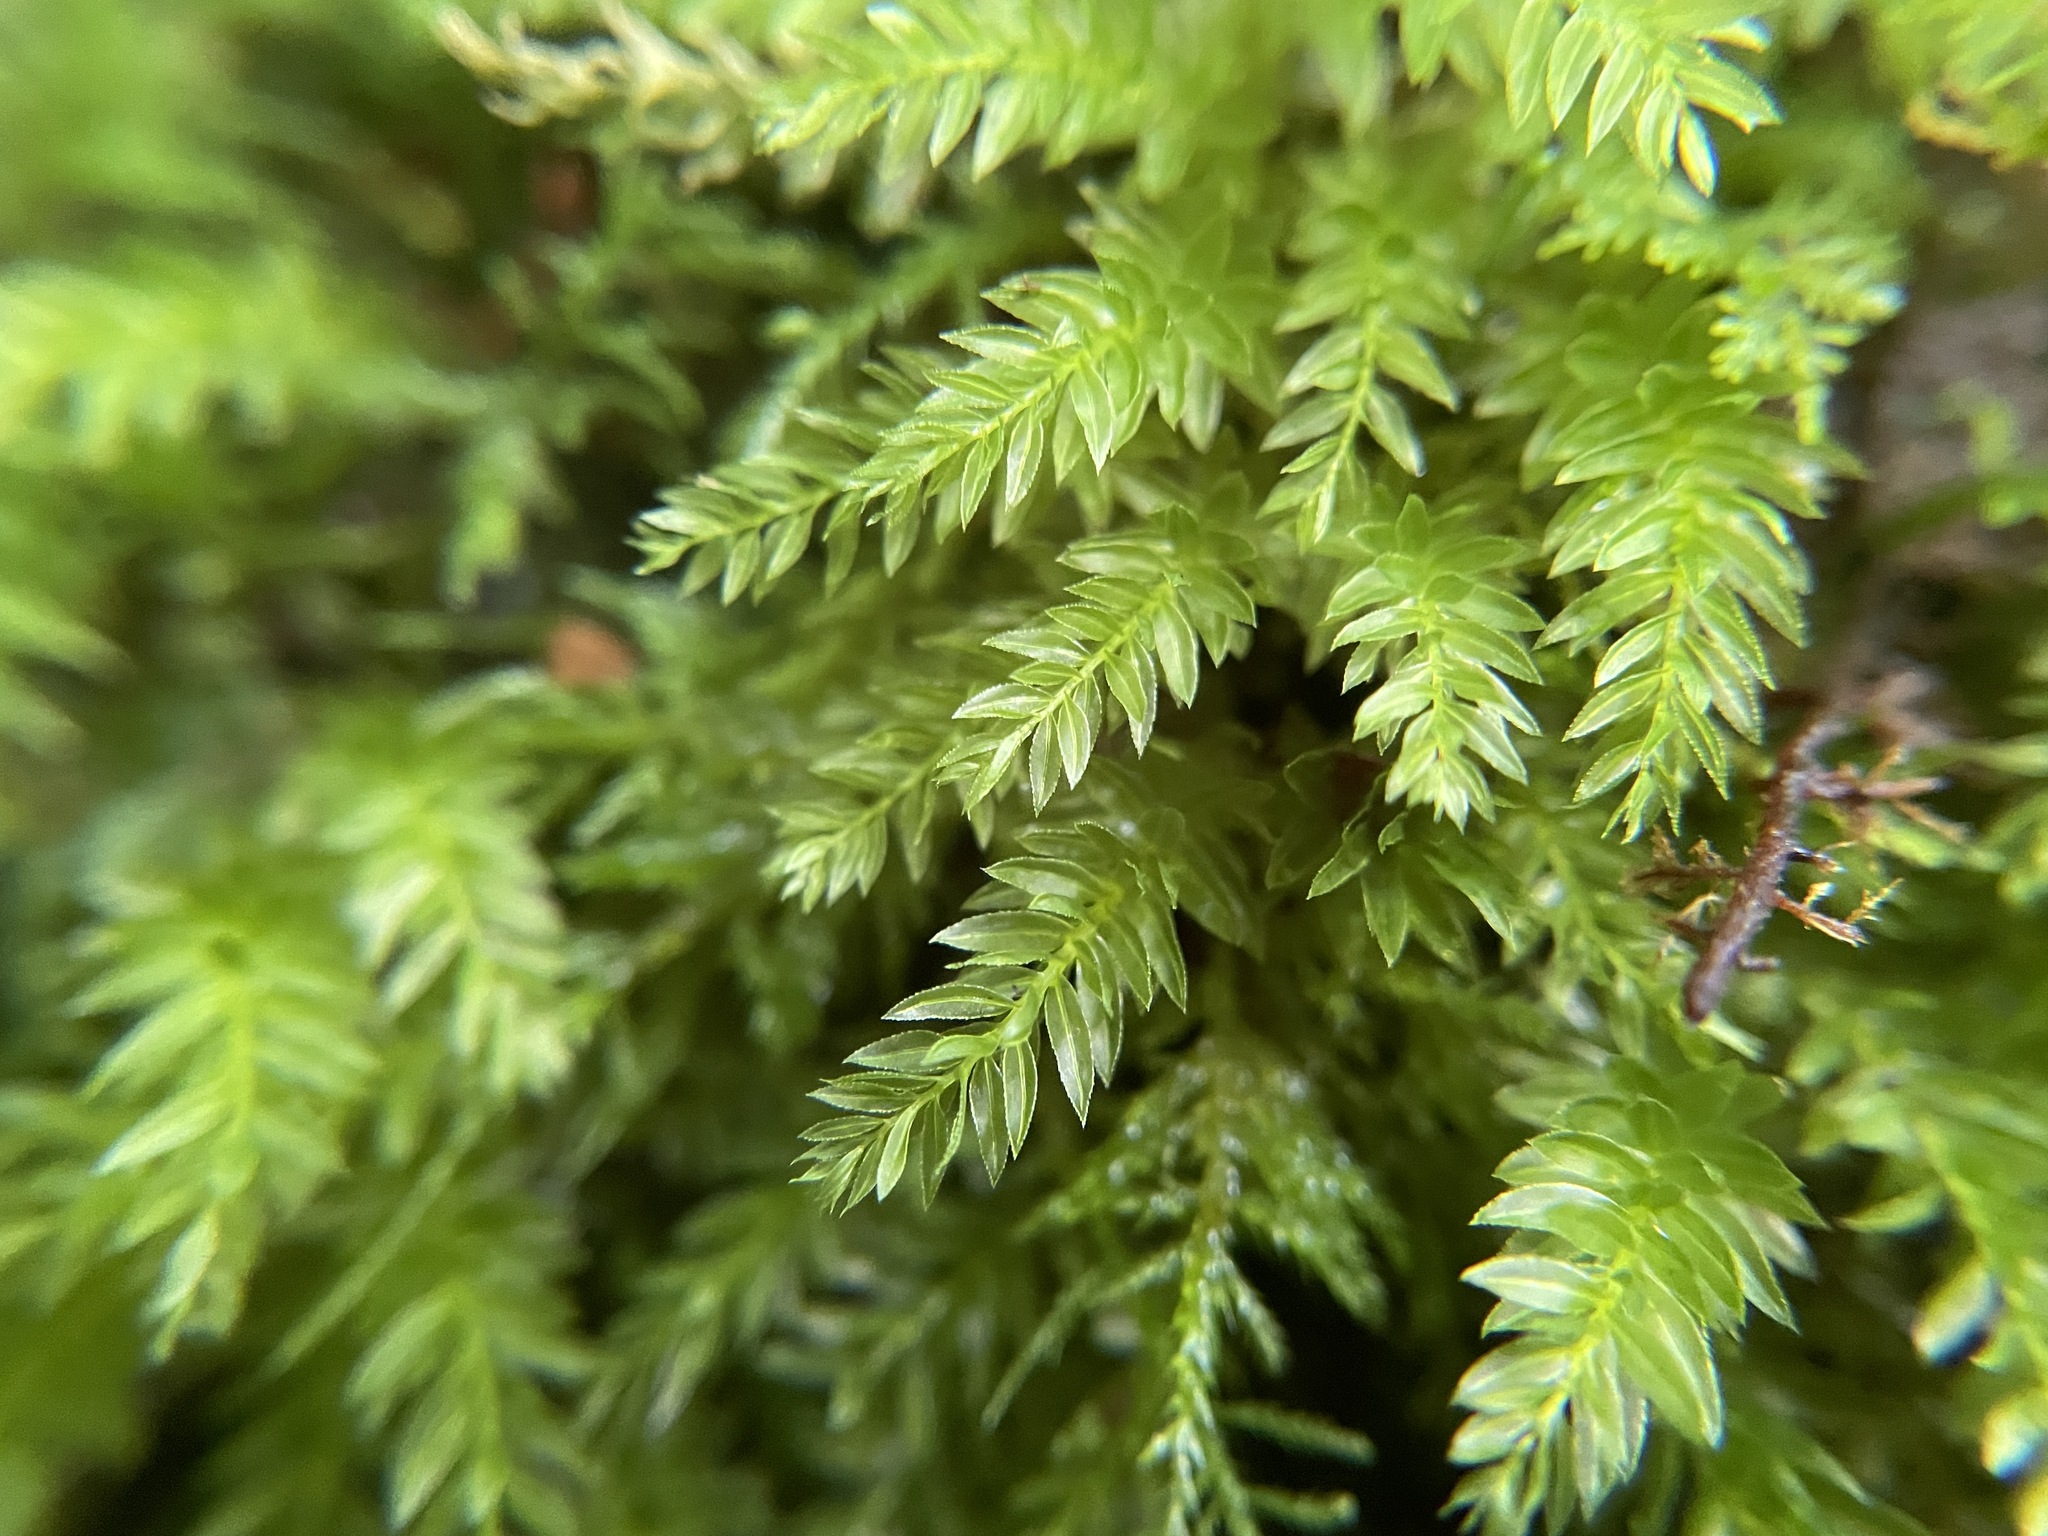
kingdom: Plantae
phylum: Bryophyta
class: Bryopsida
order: Bryales
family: Mniaceae
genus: Mnium
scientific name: Mnium hornum
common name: Swan's-neck leafy moss
